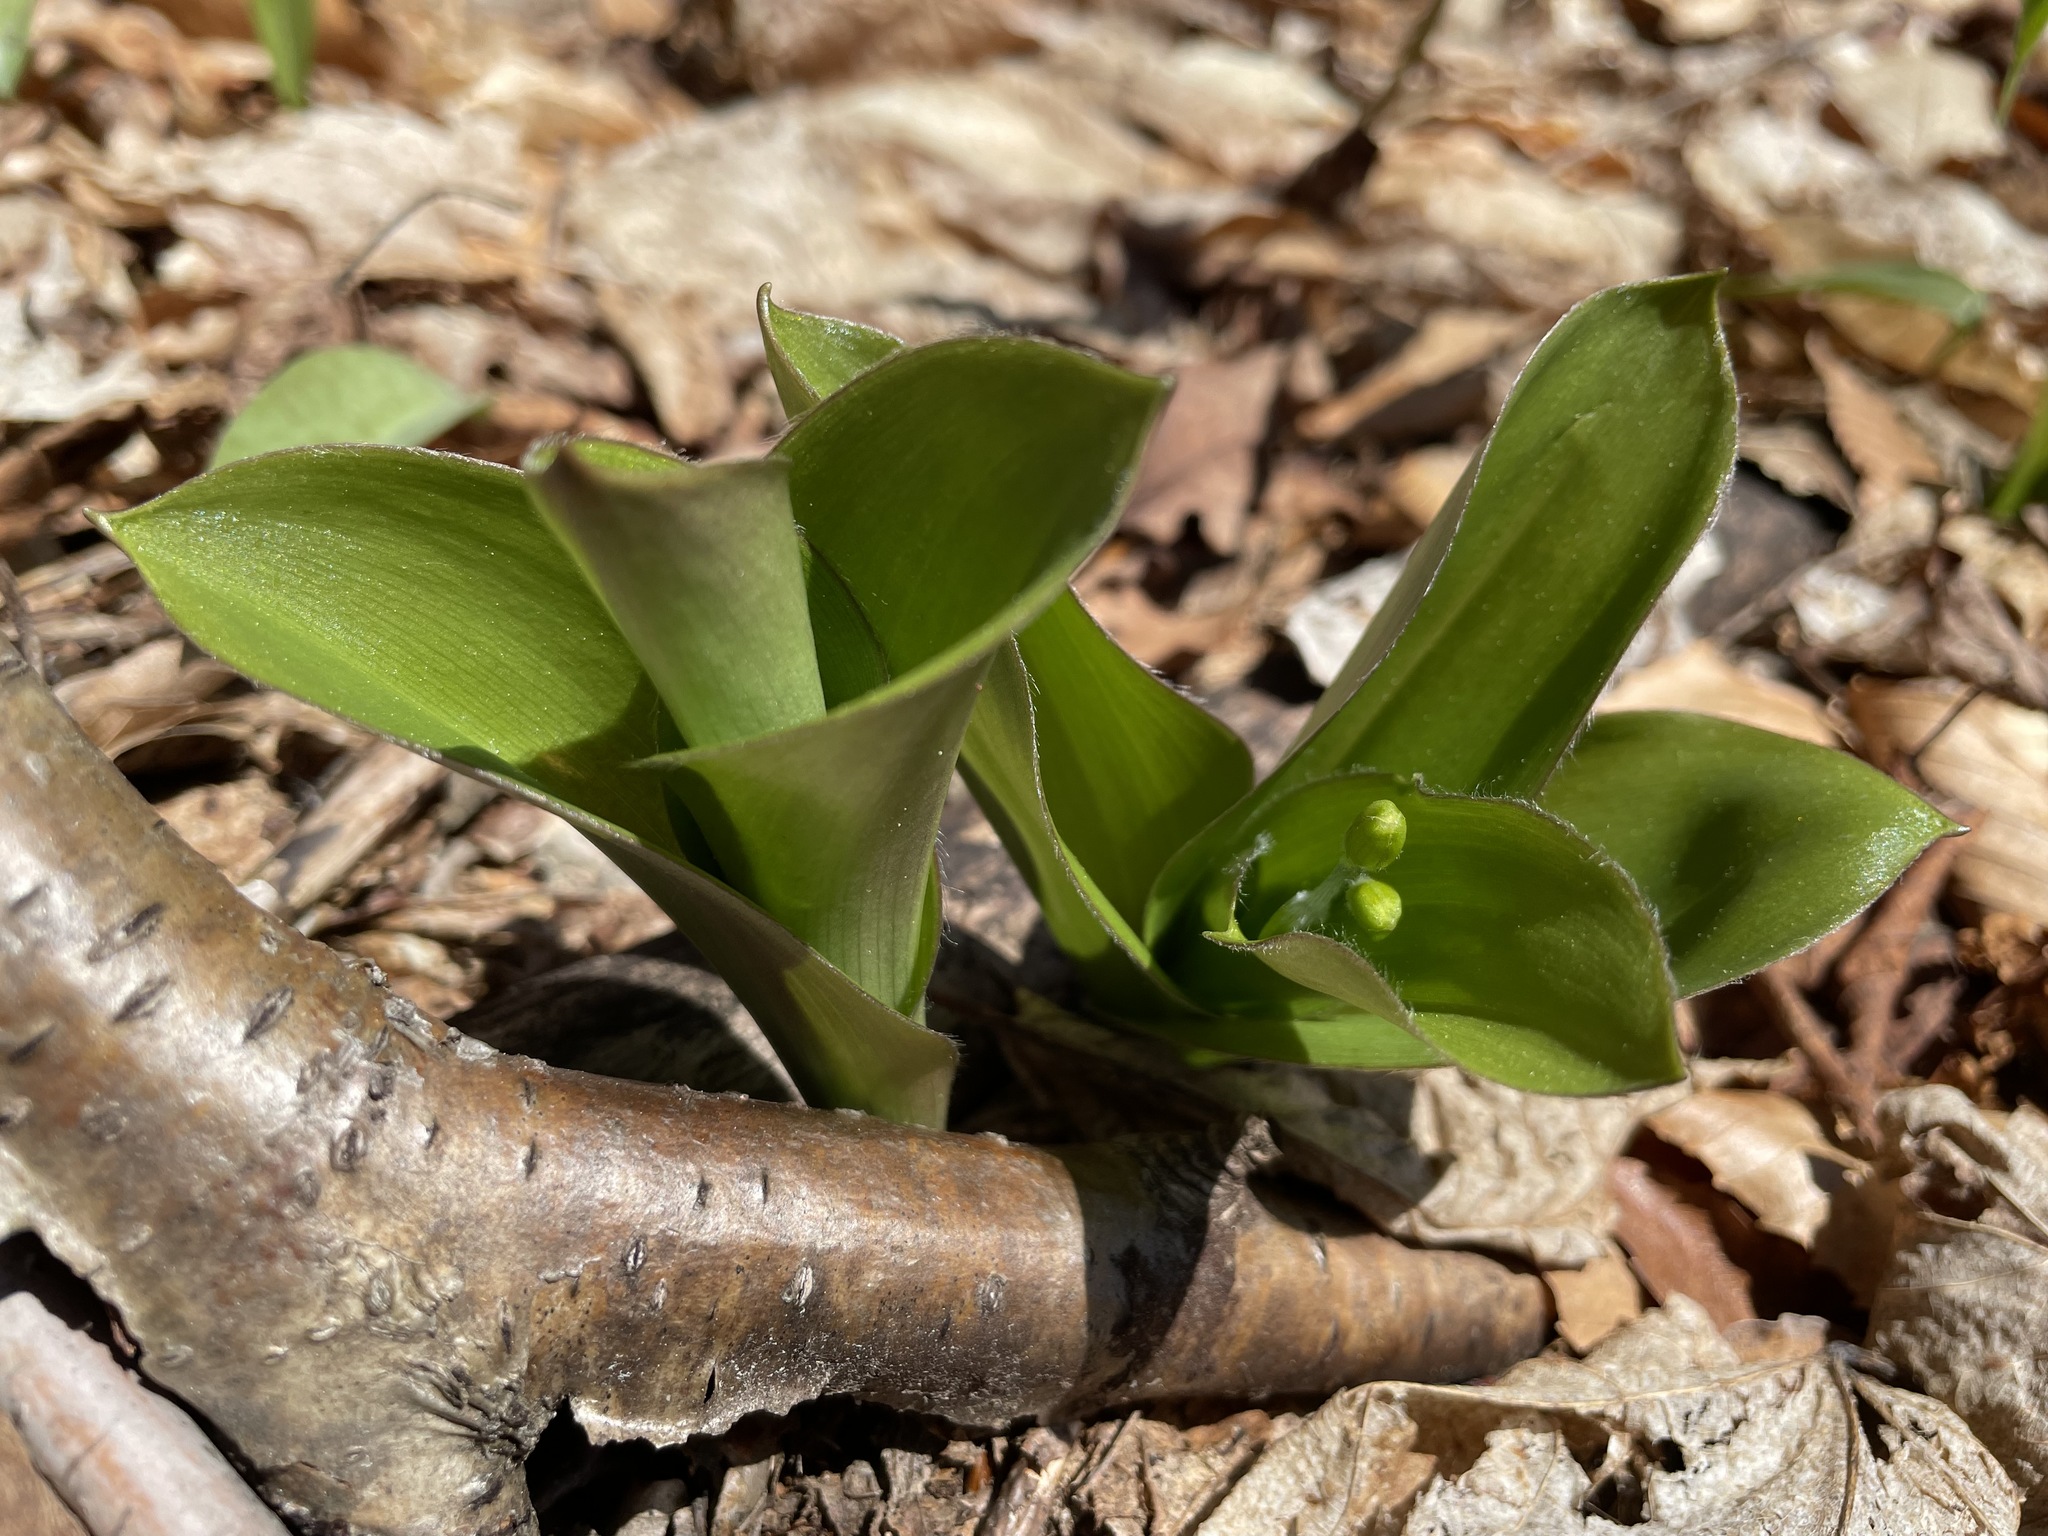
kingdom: Plantae
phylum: Tracheophyta
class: Liliopsida
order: Liliales
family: Liliaceae
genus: Clintonia
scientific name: Clintonia borealis
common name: Yellow clintonia
